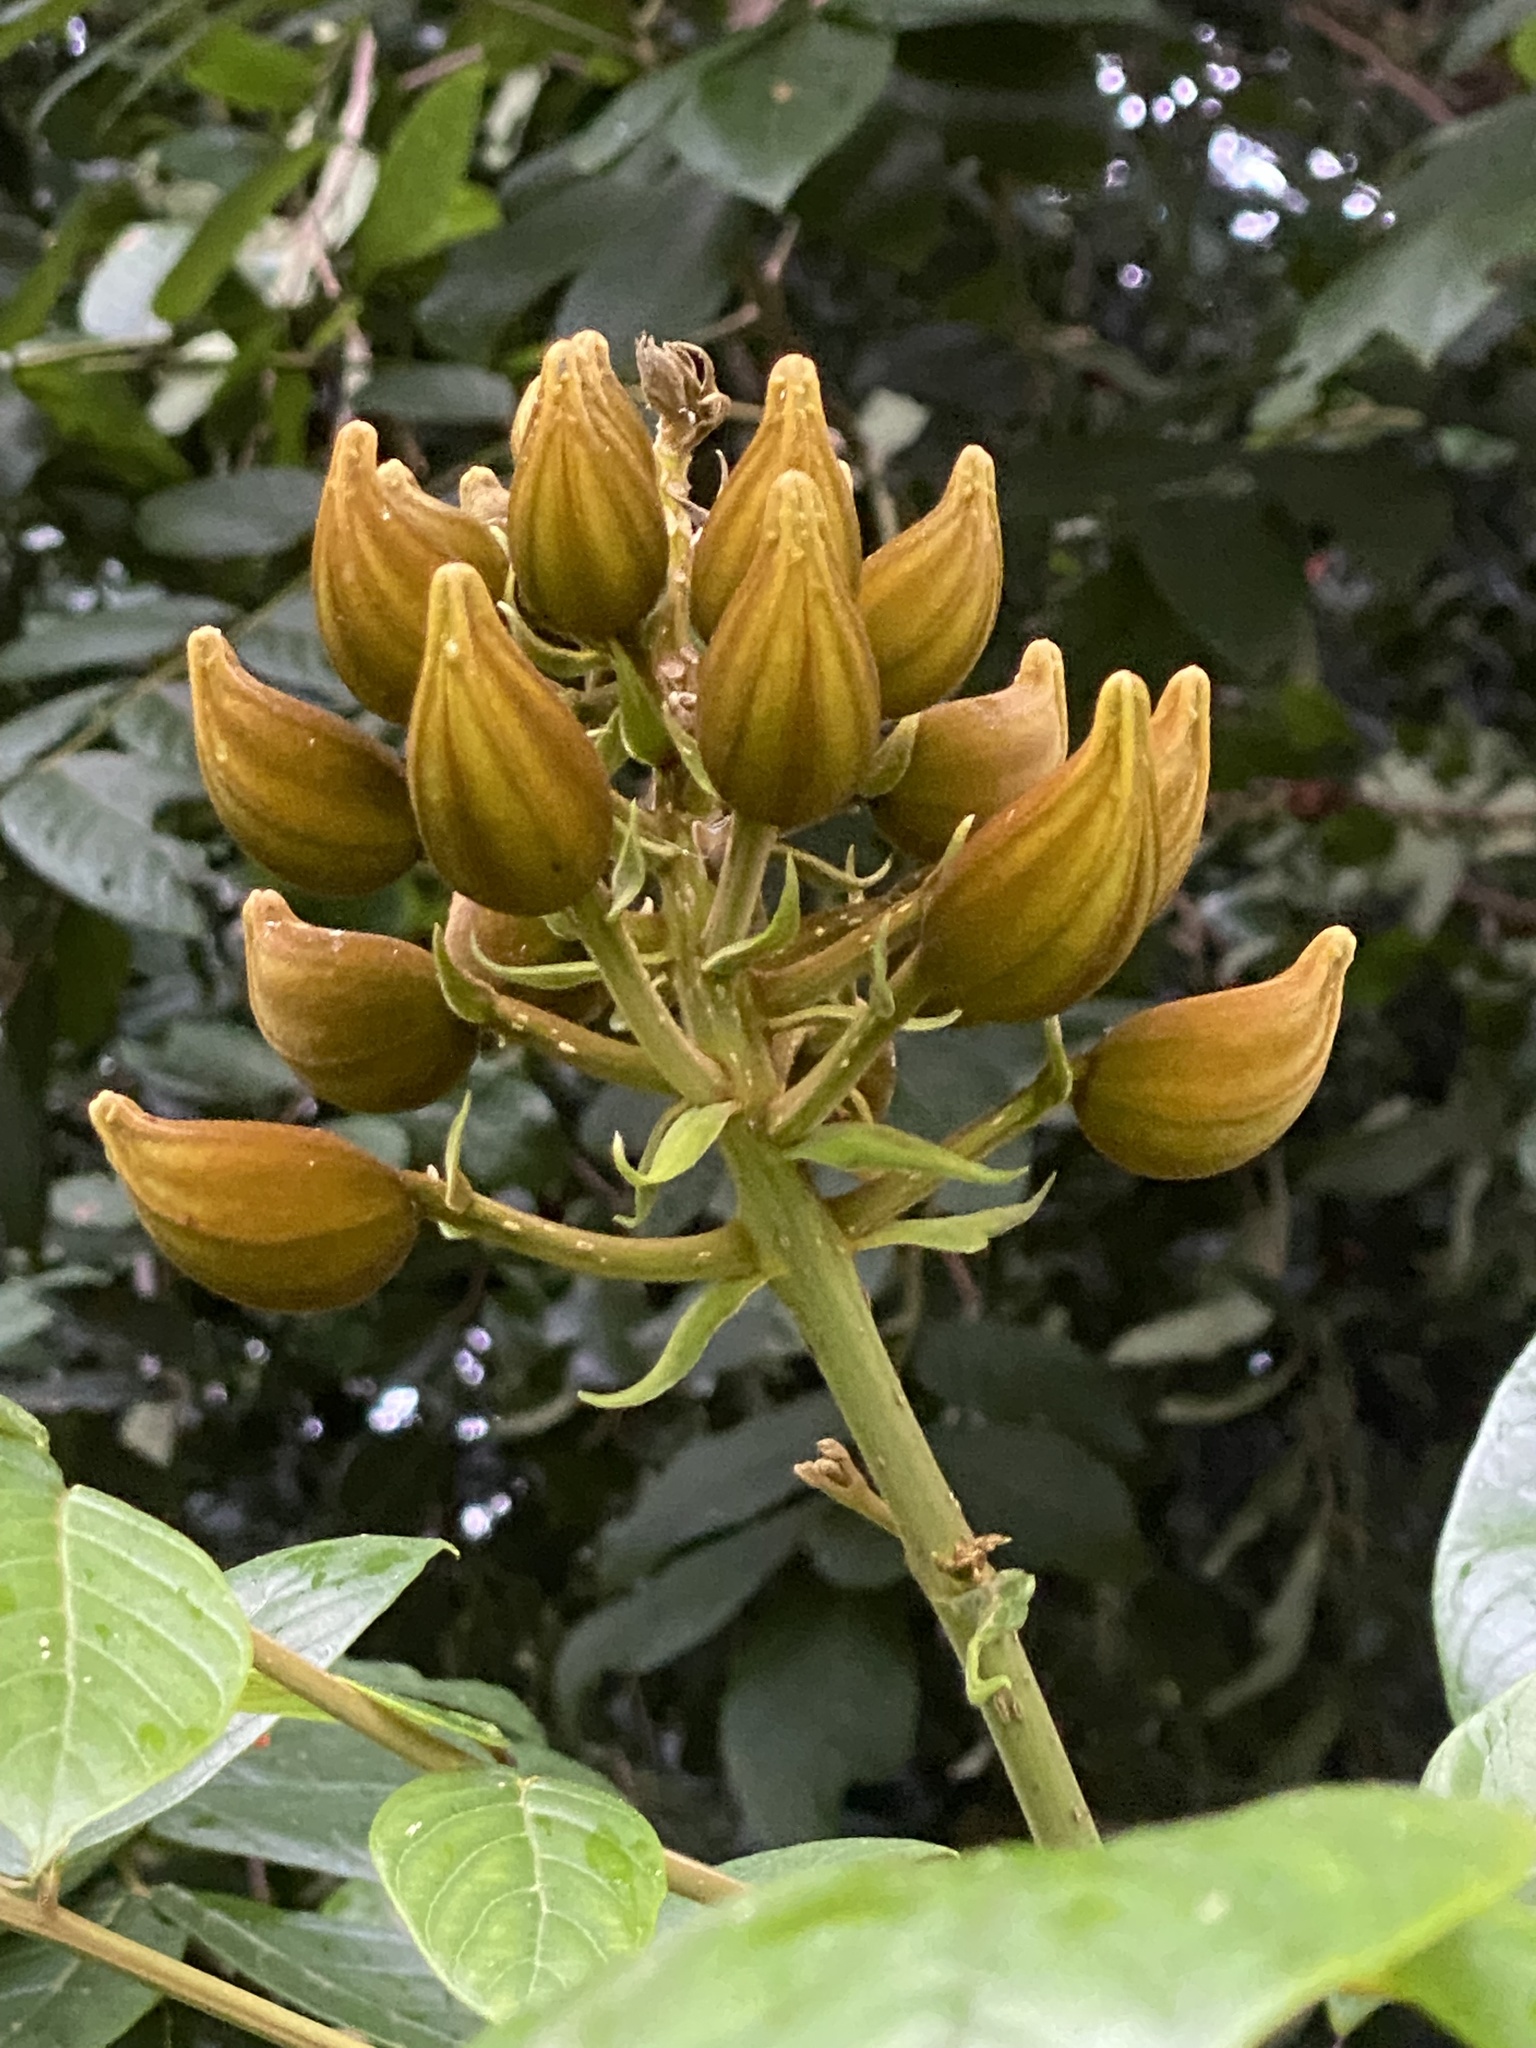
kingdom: Plantae
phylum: Tracheophyta
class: Magnoliopsida
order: Lamiales
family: Bignoniaceae
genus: Spathodea
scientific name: Spathodea campanulata
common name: African tuliptree
